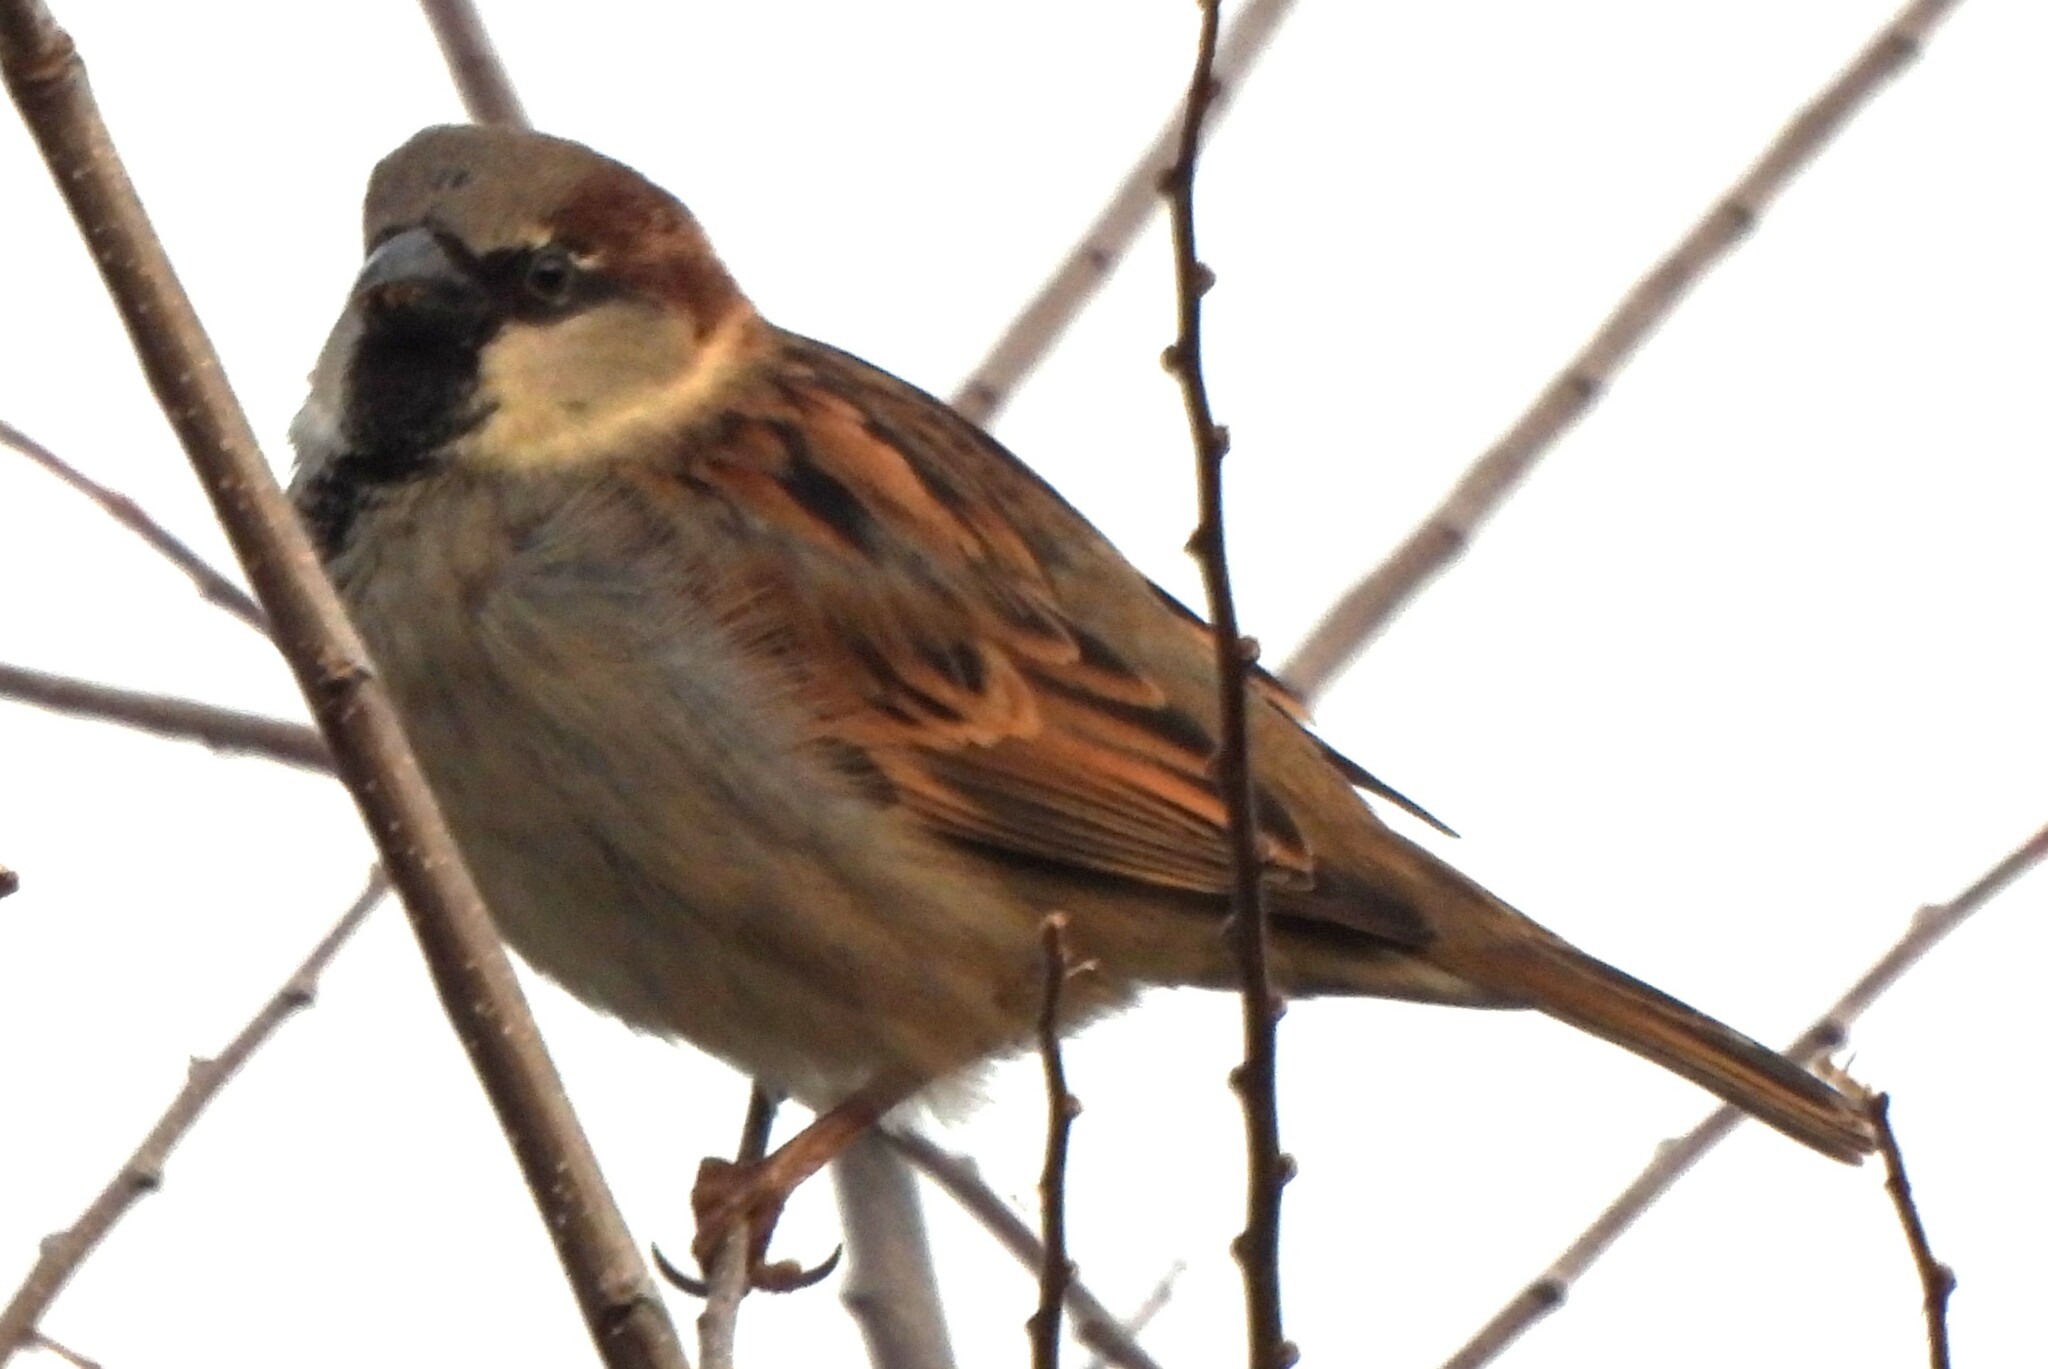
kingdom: Animalia
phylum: Chordata
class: Aves
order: Passeriformes
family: Passeridae
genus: Passer
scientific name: Passer domesticus
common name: House sparrow
